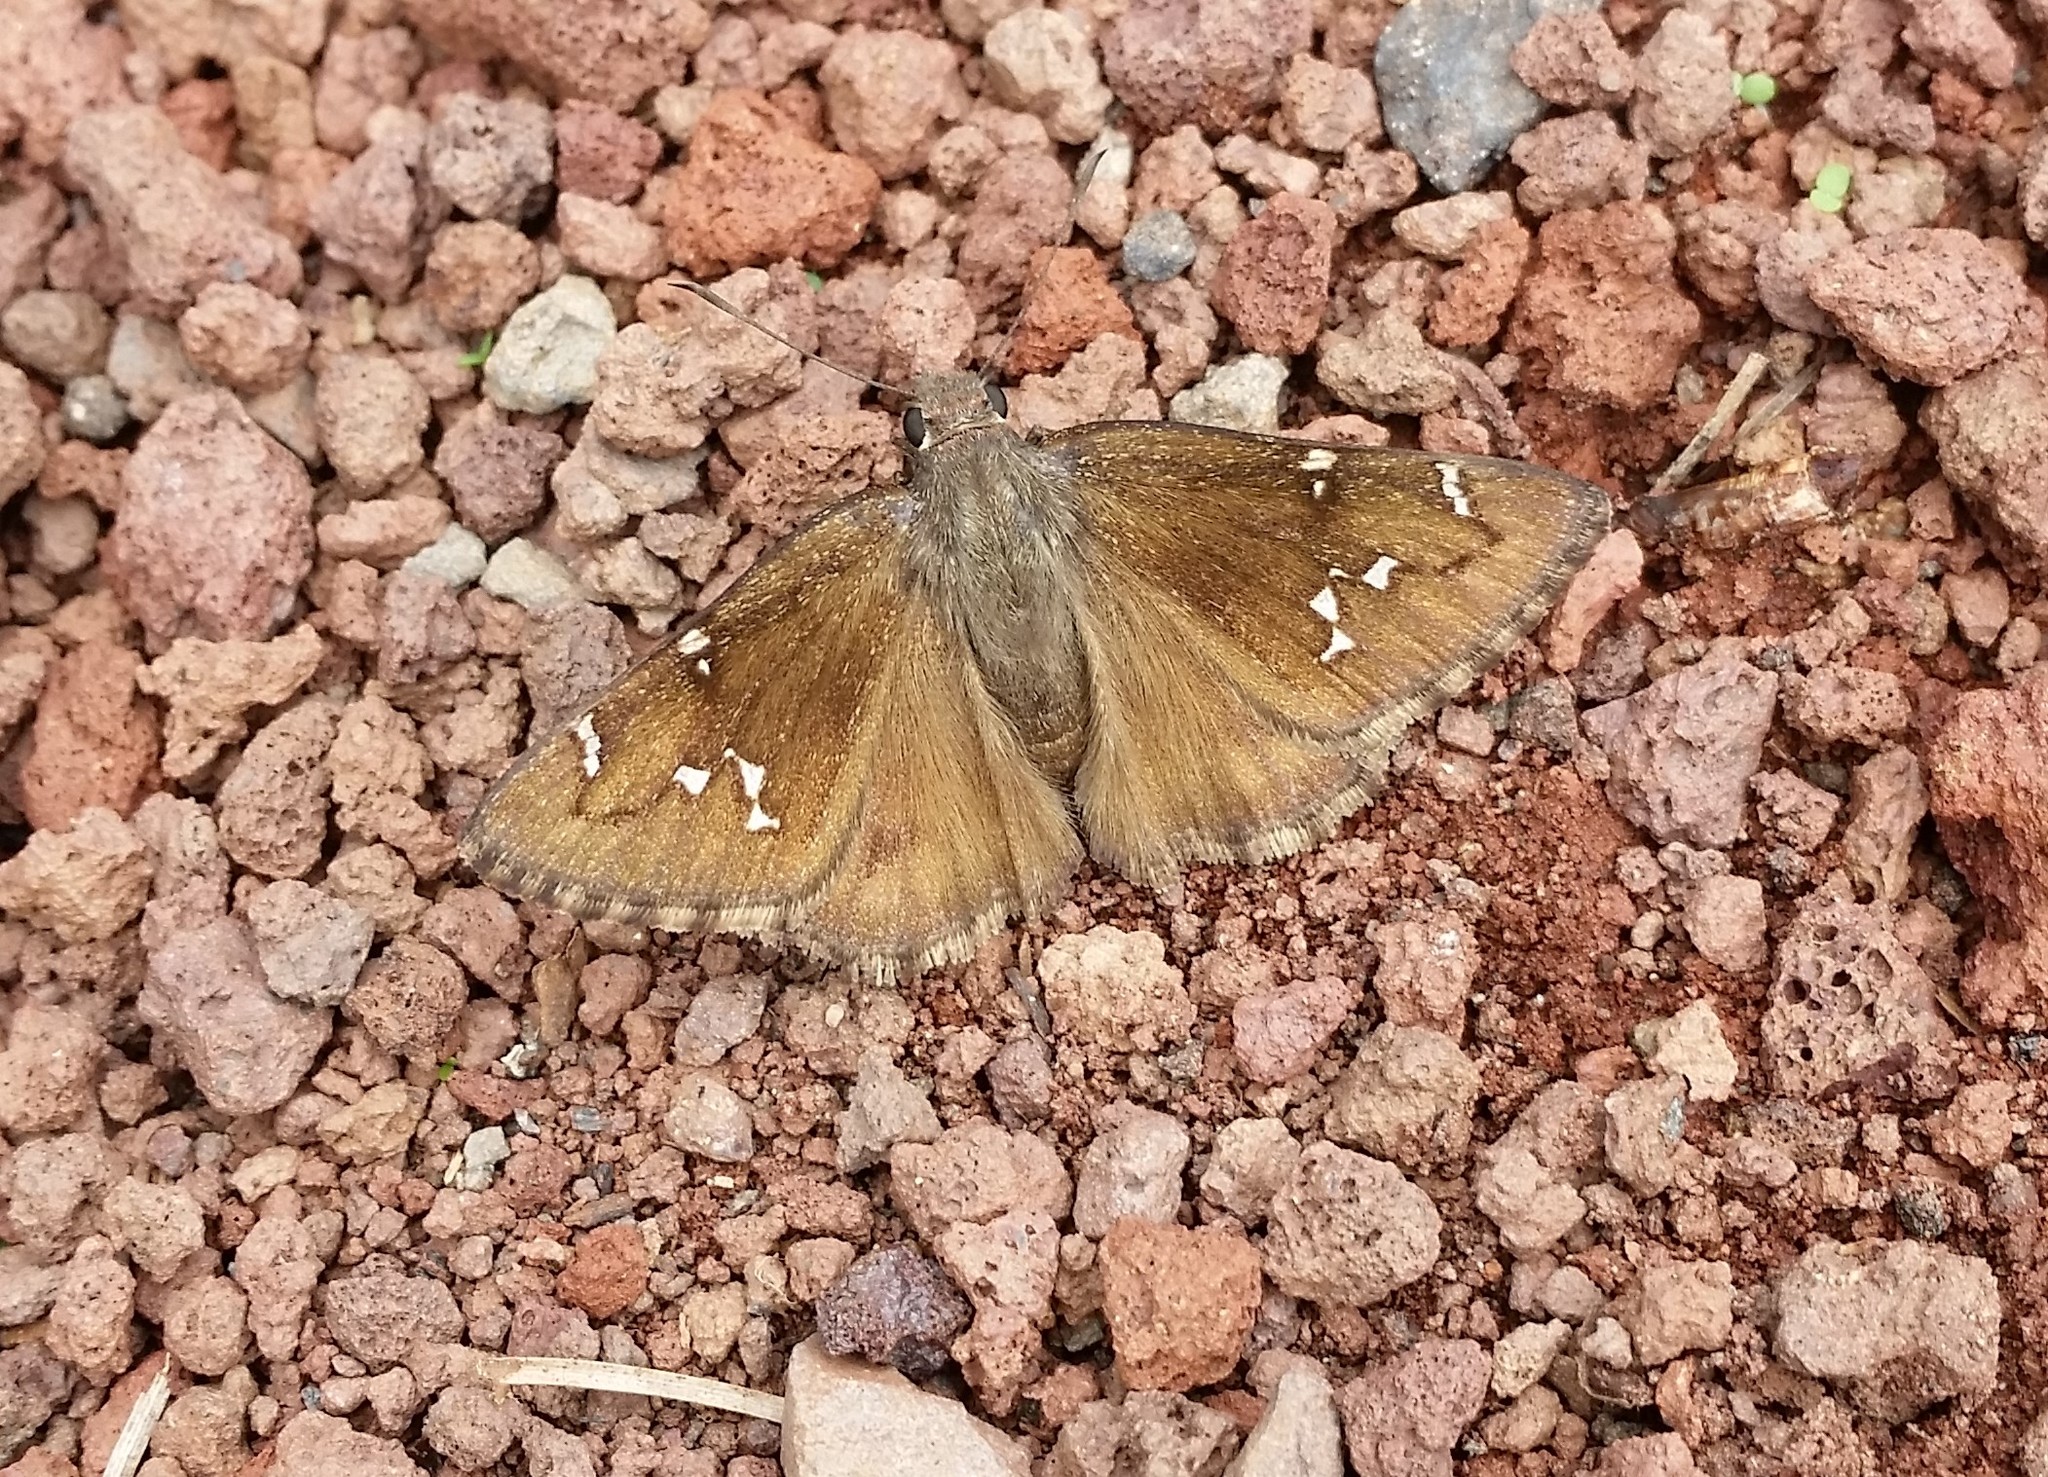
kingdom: Animalia
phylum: Arthropoda
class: Insecta
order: Lepidoptera
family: Hesperiidae
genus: Thorybes
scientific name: Thorybes pylades
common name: Northern cloudywing
